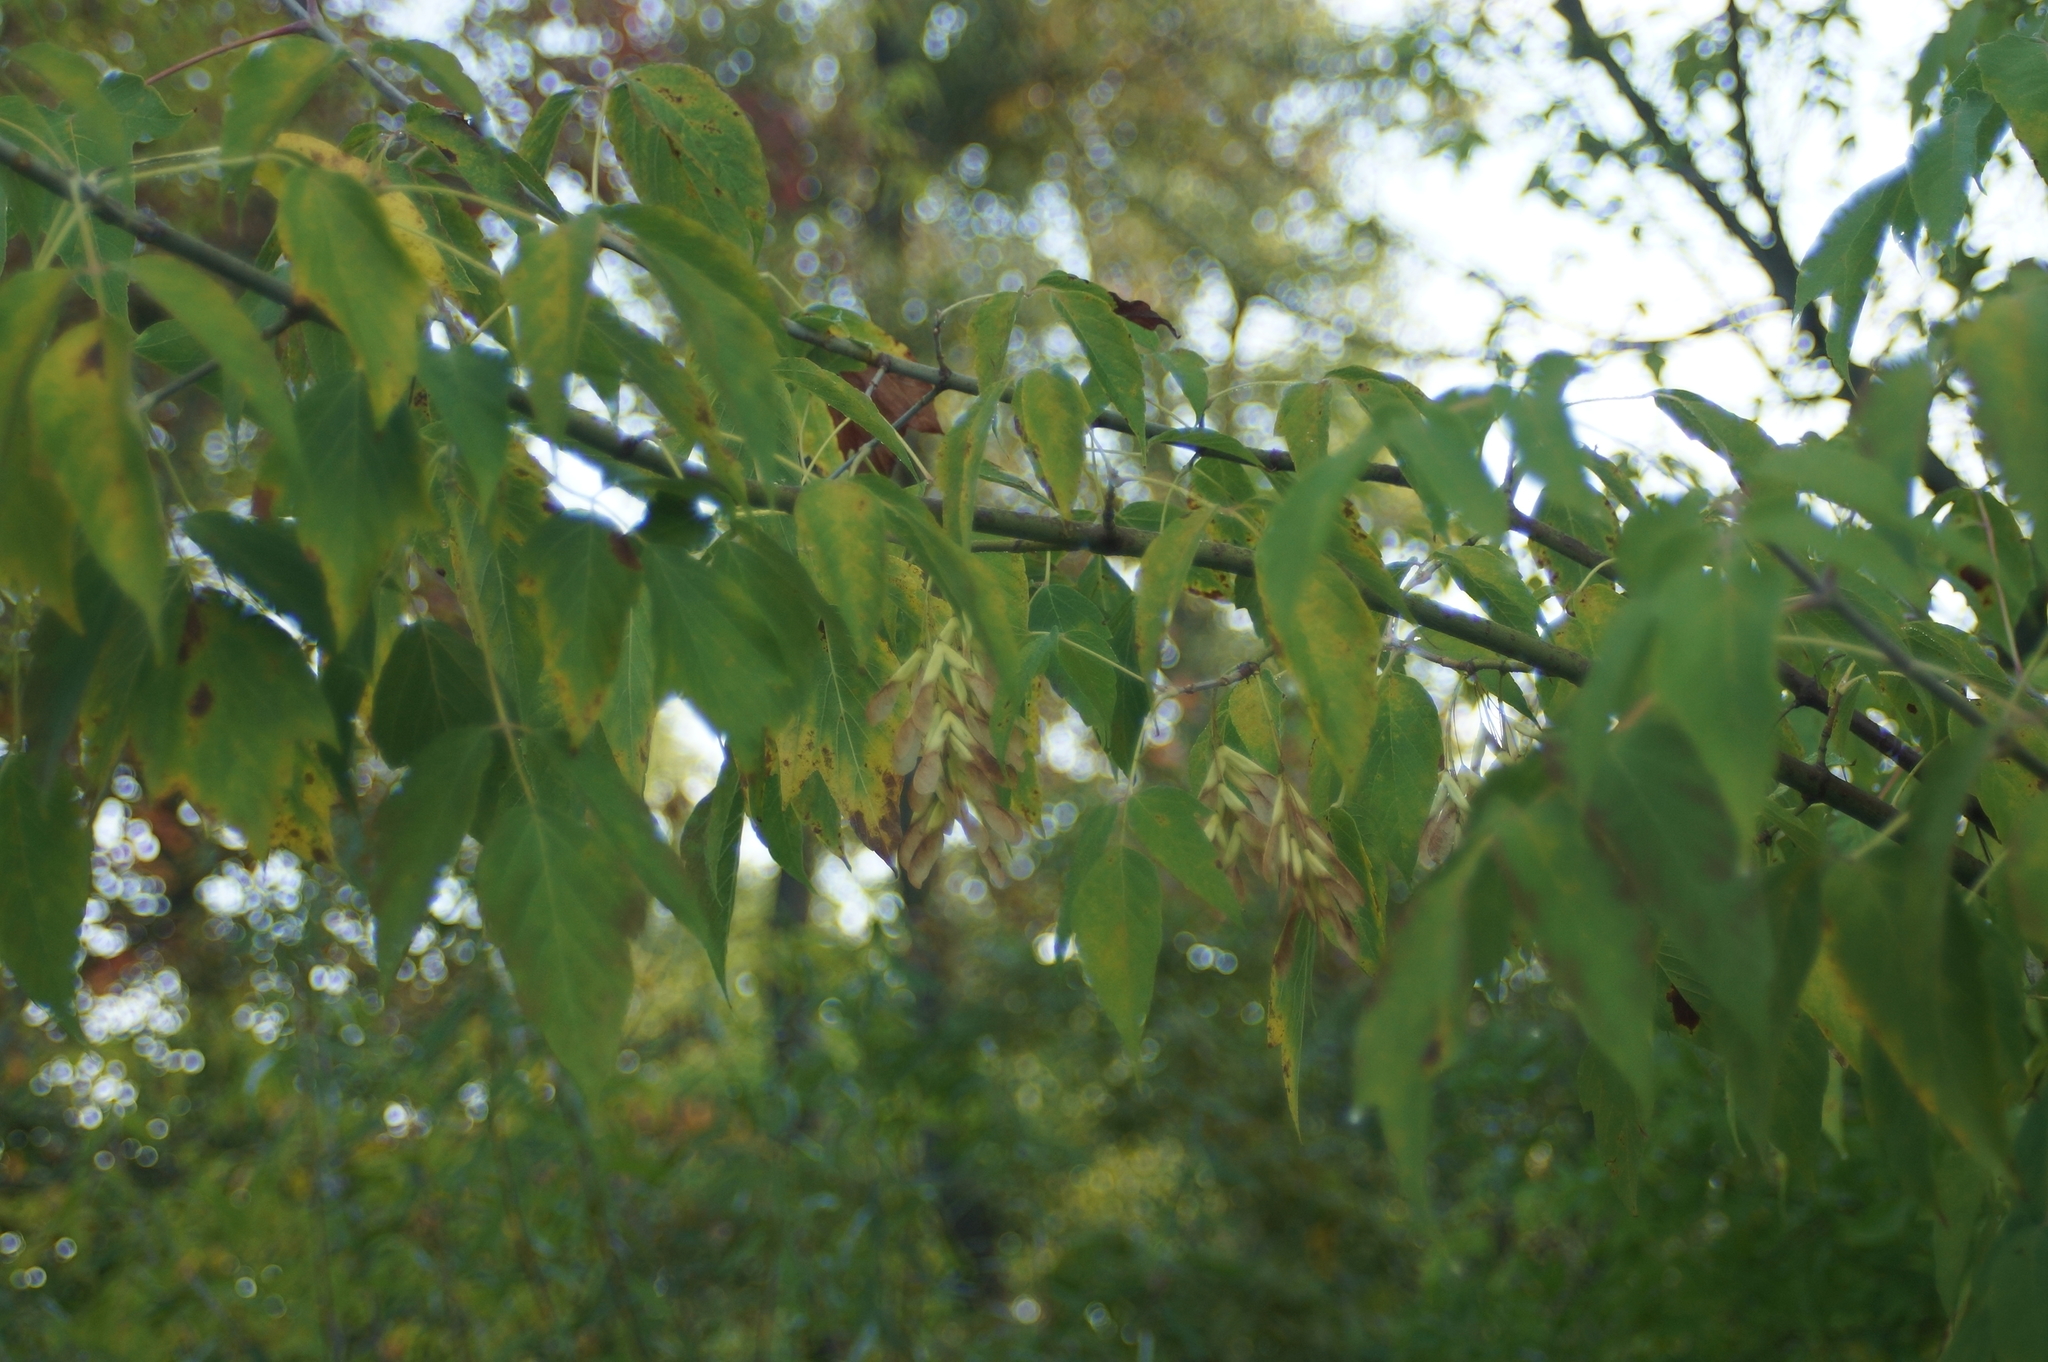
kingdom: Plantae
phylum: Tracheophyta
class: Magnoliopsida
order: Sapindales
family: Sapindaceae
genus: Acer
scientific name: Acer negundo
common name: Ashleaf maple
